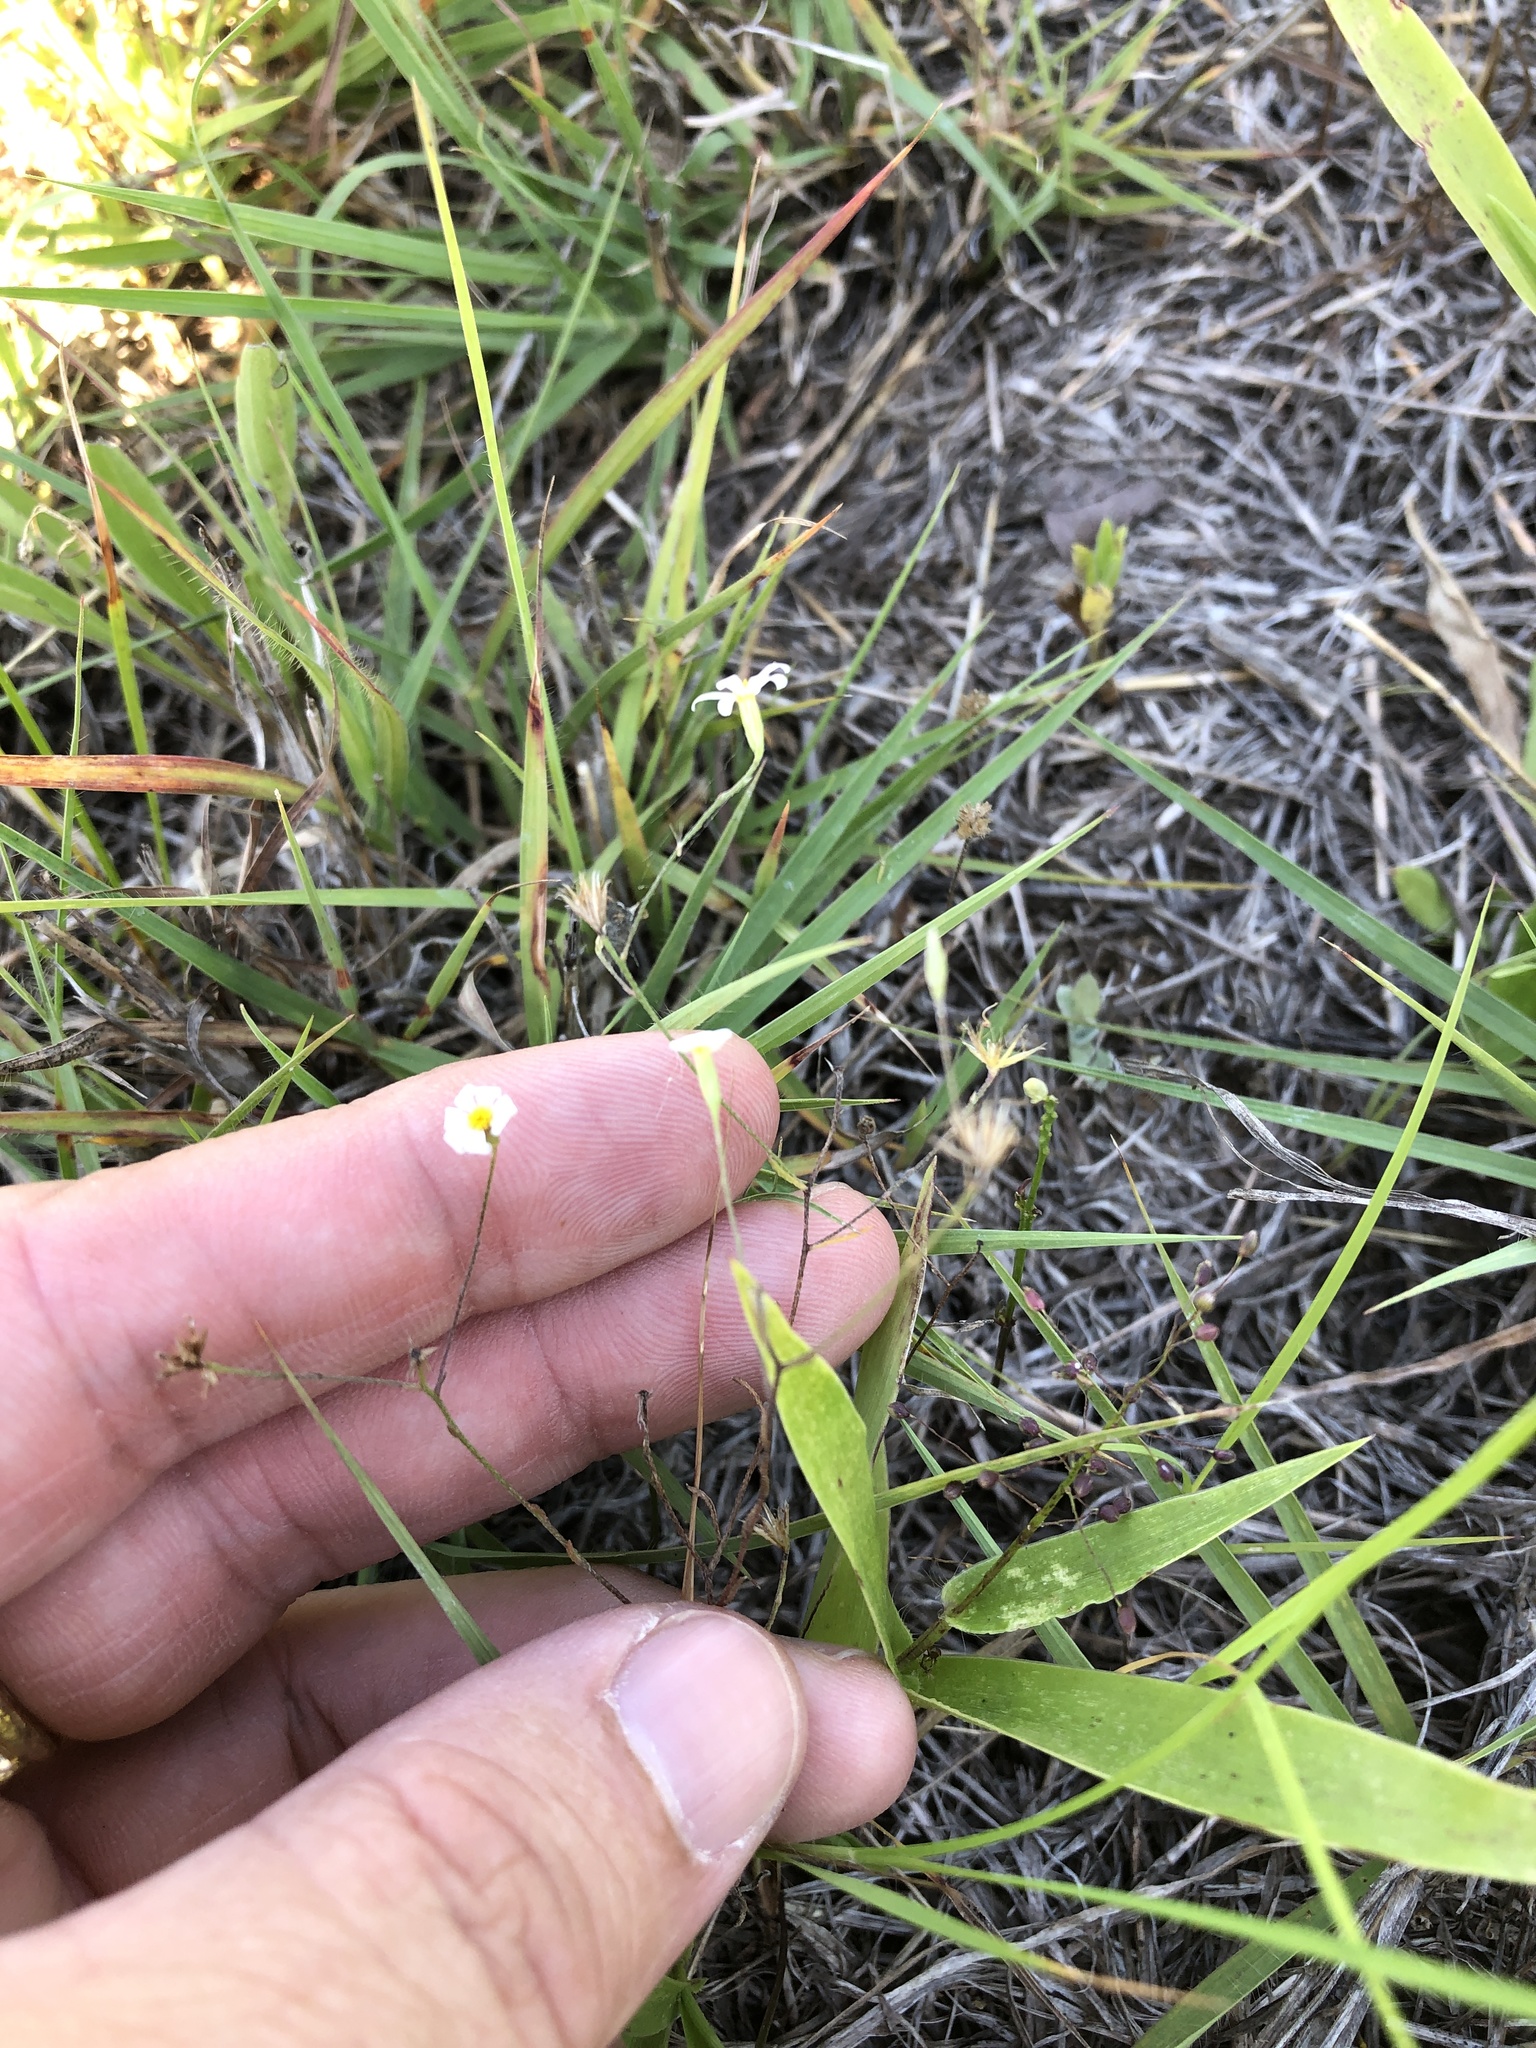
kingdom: Plantae
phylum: Tracheophyta
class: Magnoliopsida
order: Asterales
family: Asteraceae
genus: Chaetopappa
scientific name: Chaetopappa asteroides
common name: Tiny lazy daisy
